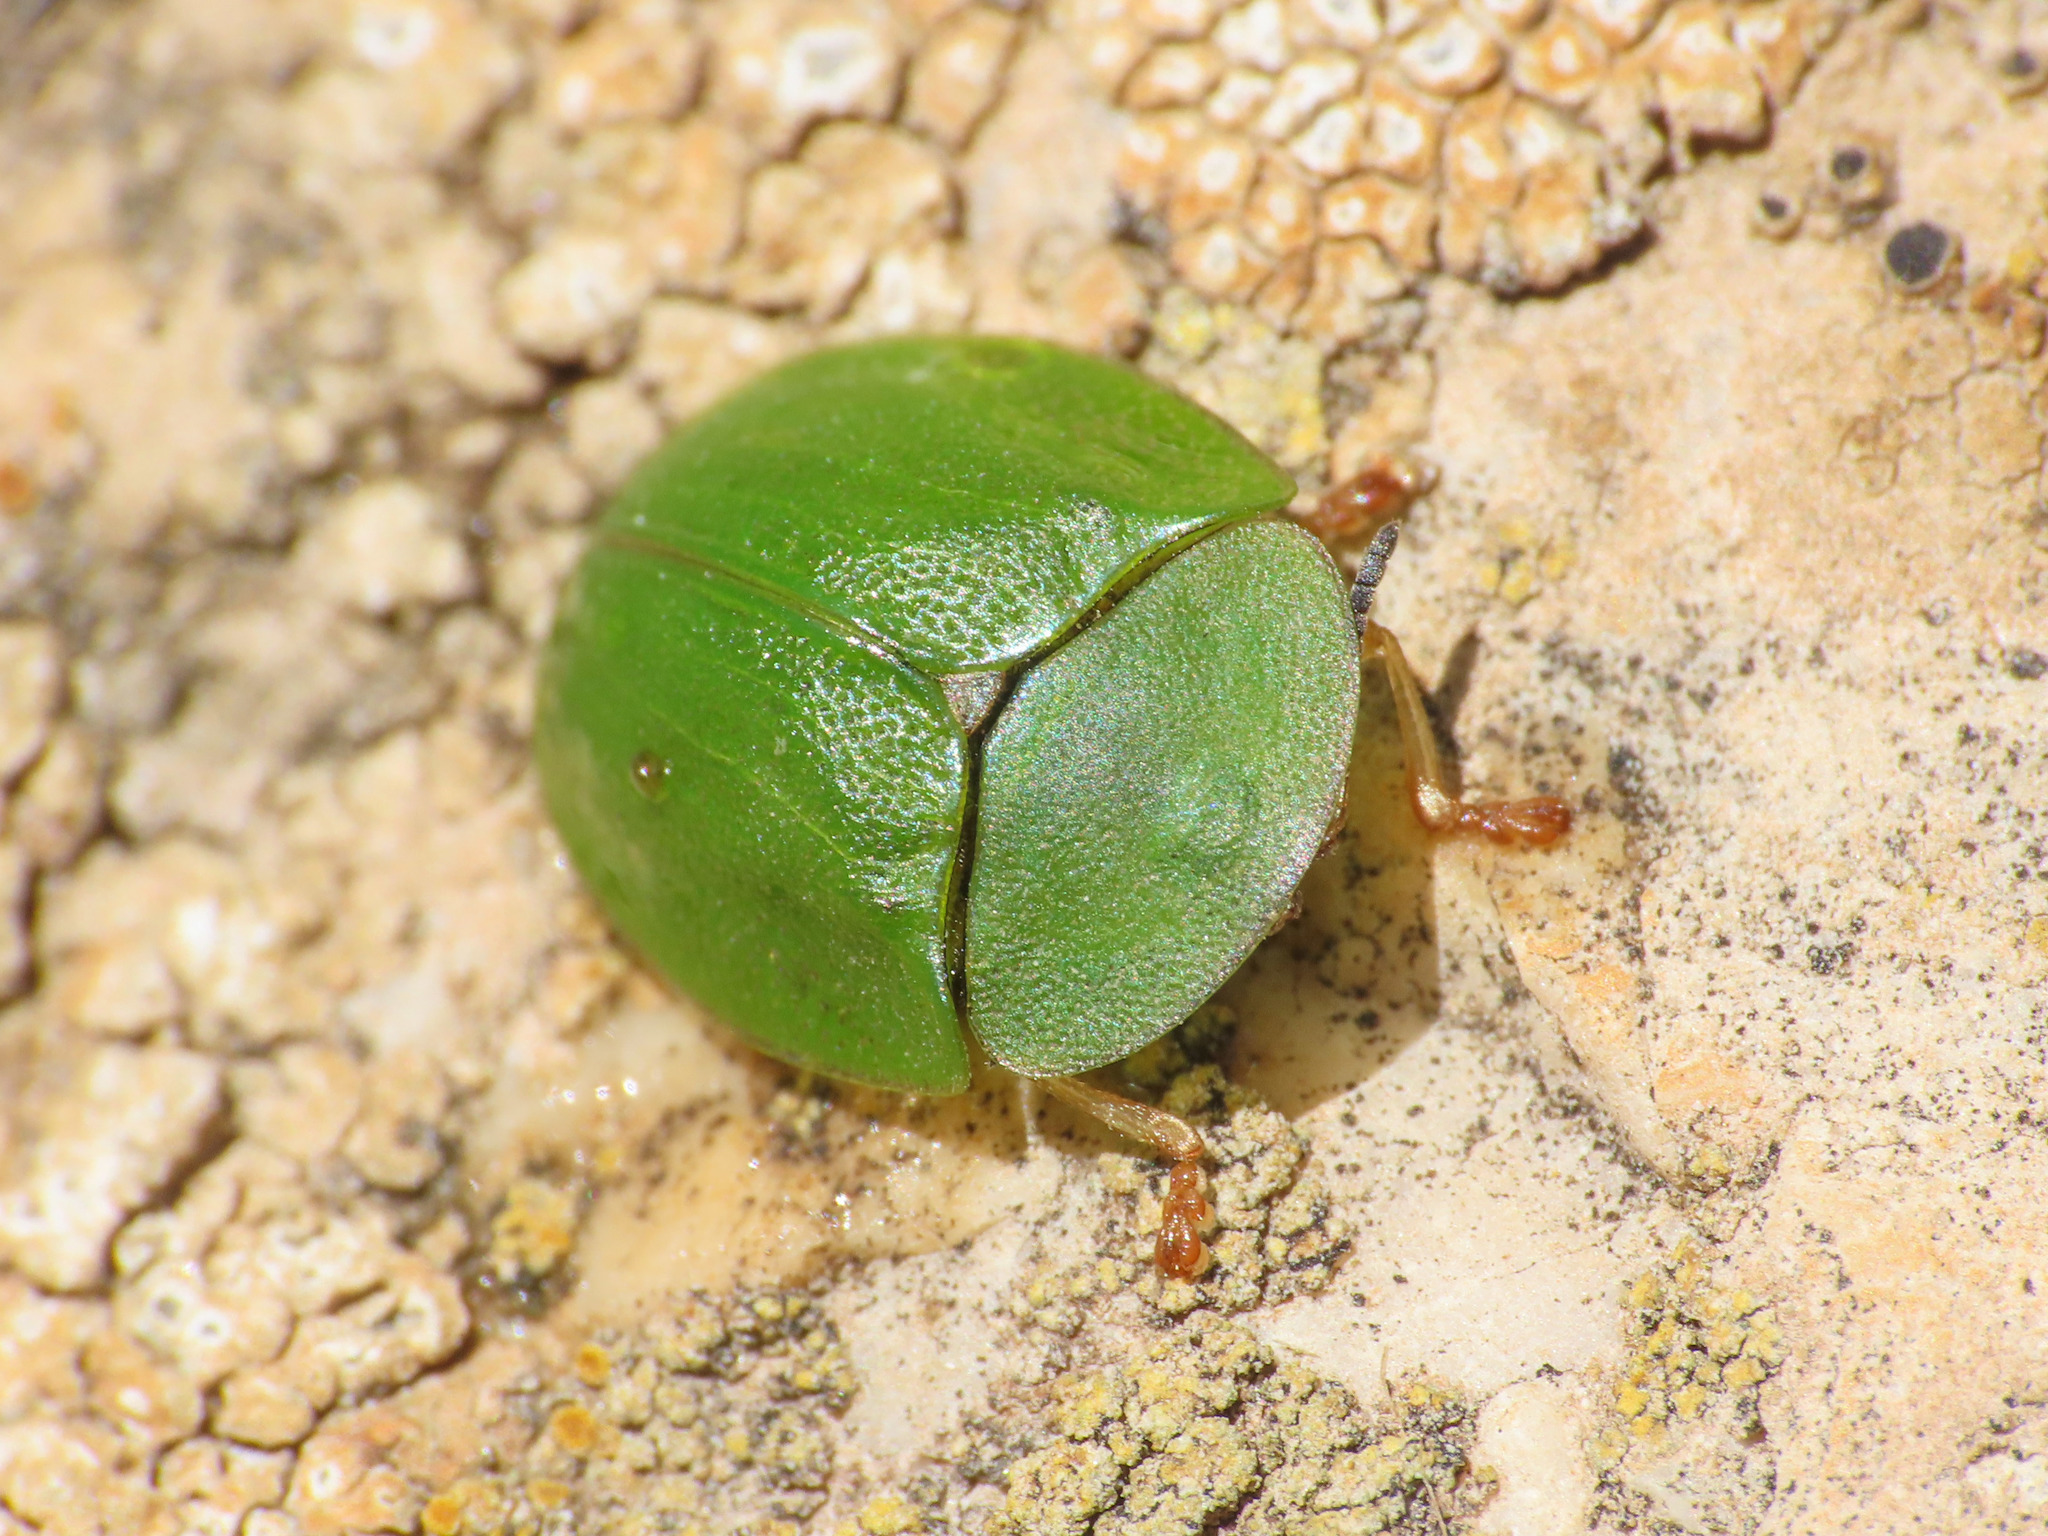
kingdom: Animalia
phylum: Arthropoda
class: Insecta
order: Coleoptera
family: Chrysomelidae
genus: Cassida
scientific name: Cassida viridis
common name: Green tortoise beetle
